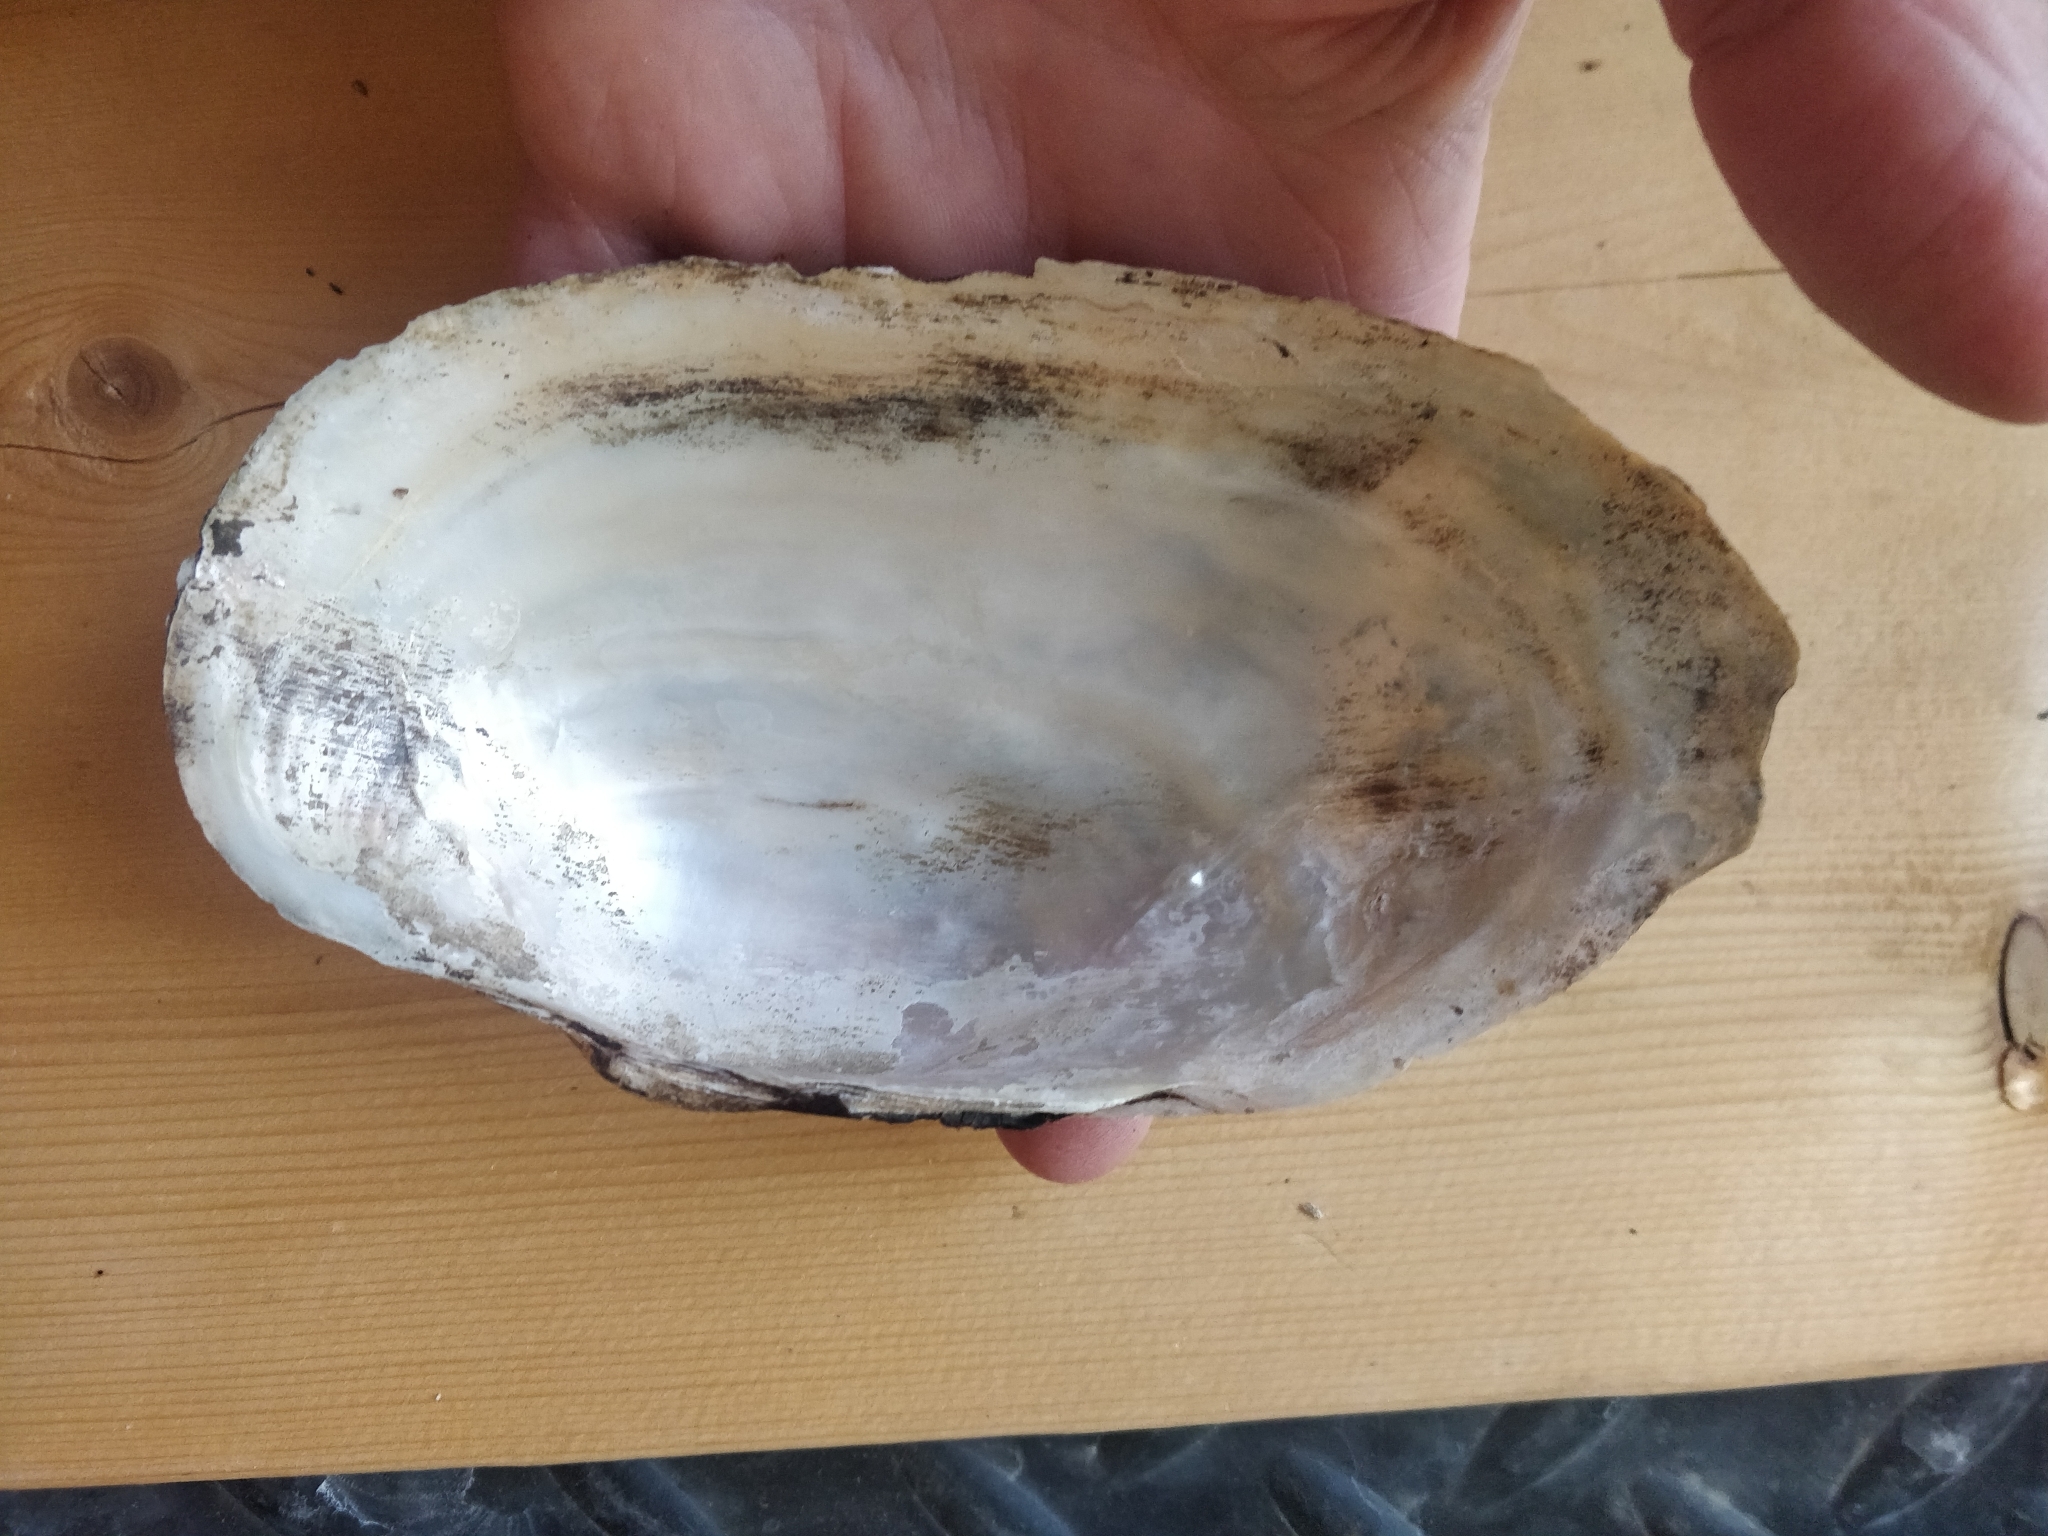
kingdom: Animalia
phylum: Mollusca
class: Bivalvia
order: Unionida
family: Unionidae
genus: Pyganodon
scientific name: Pyganodon grandis
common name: Giant floater
